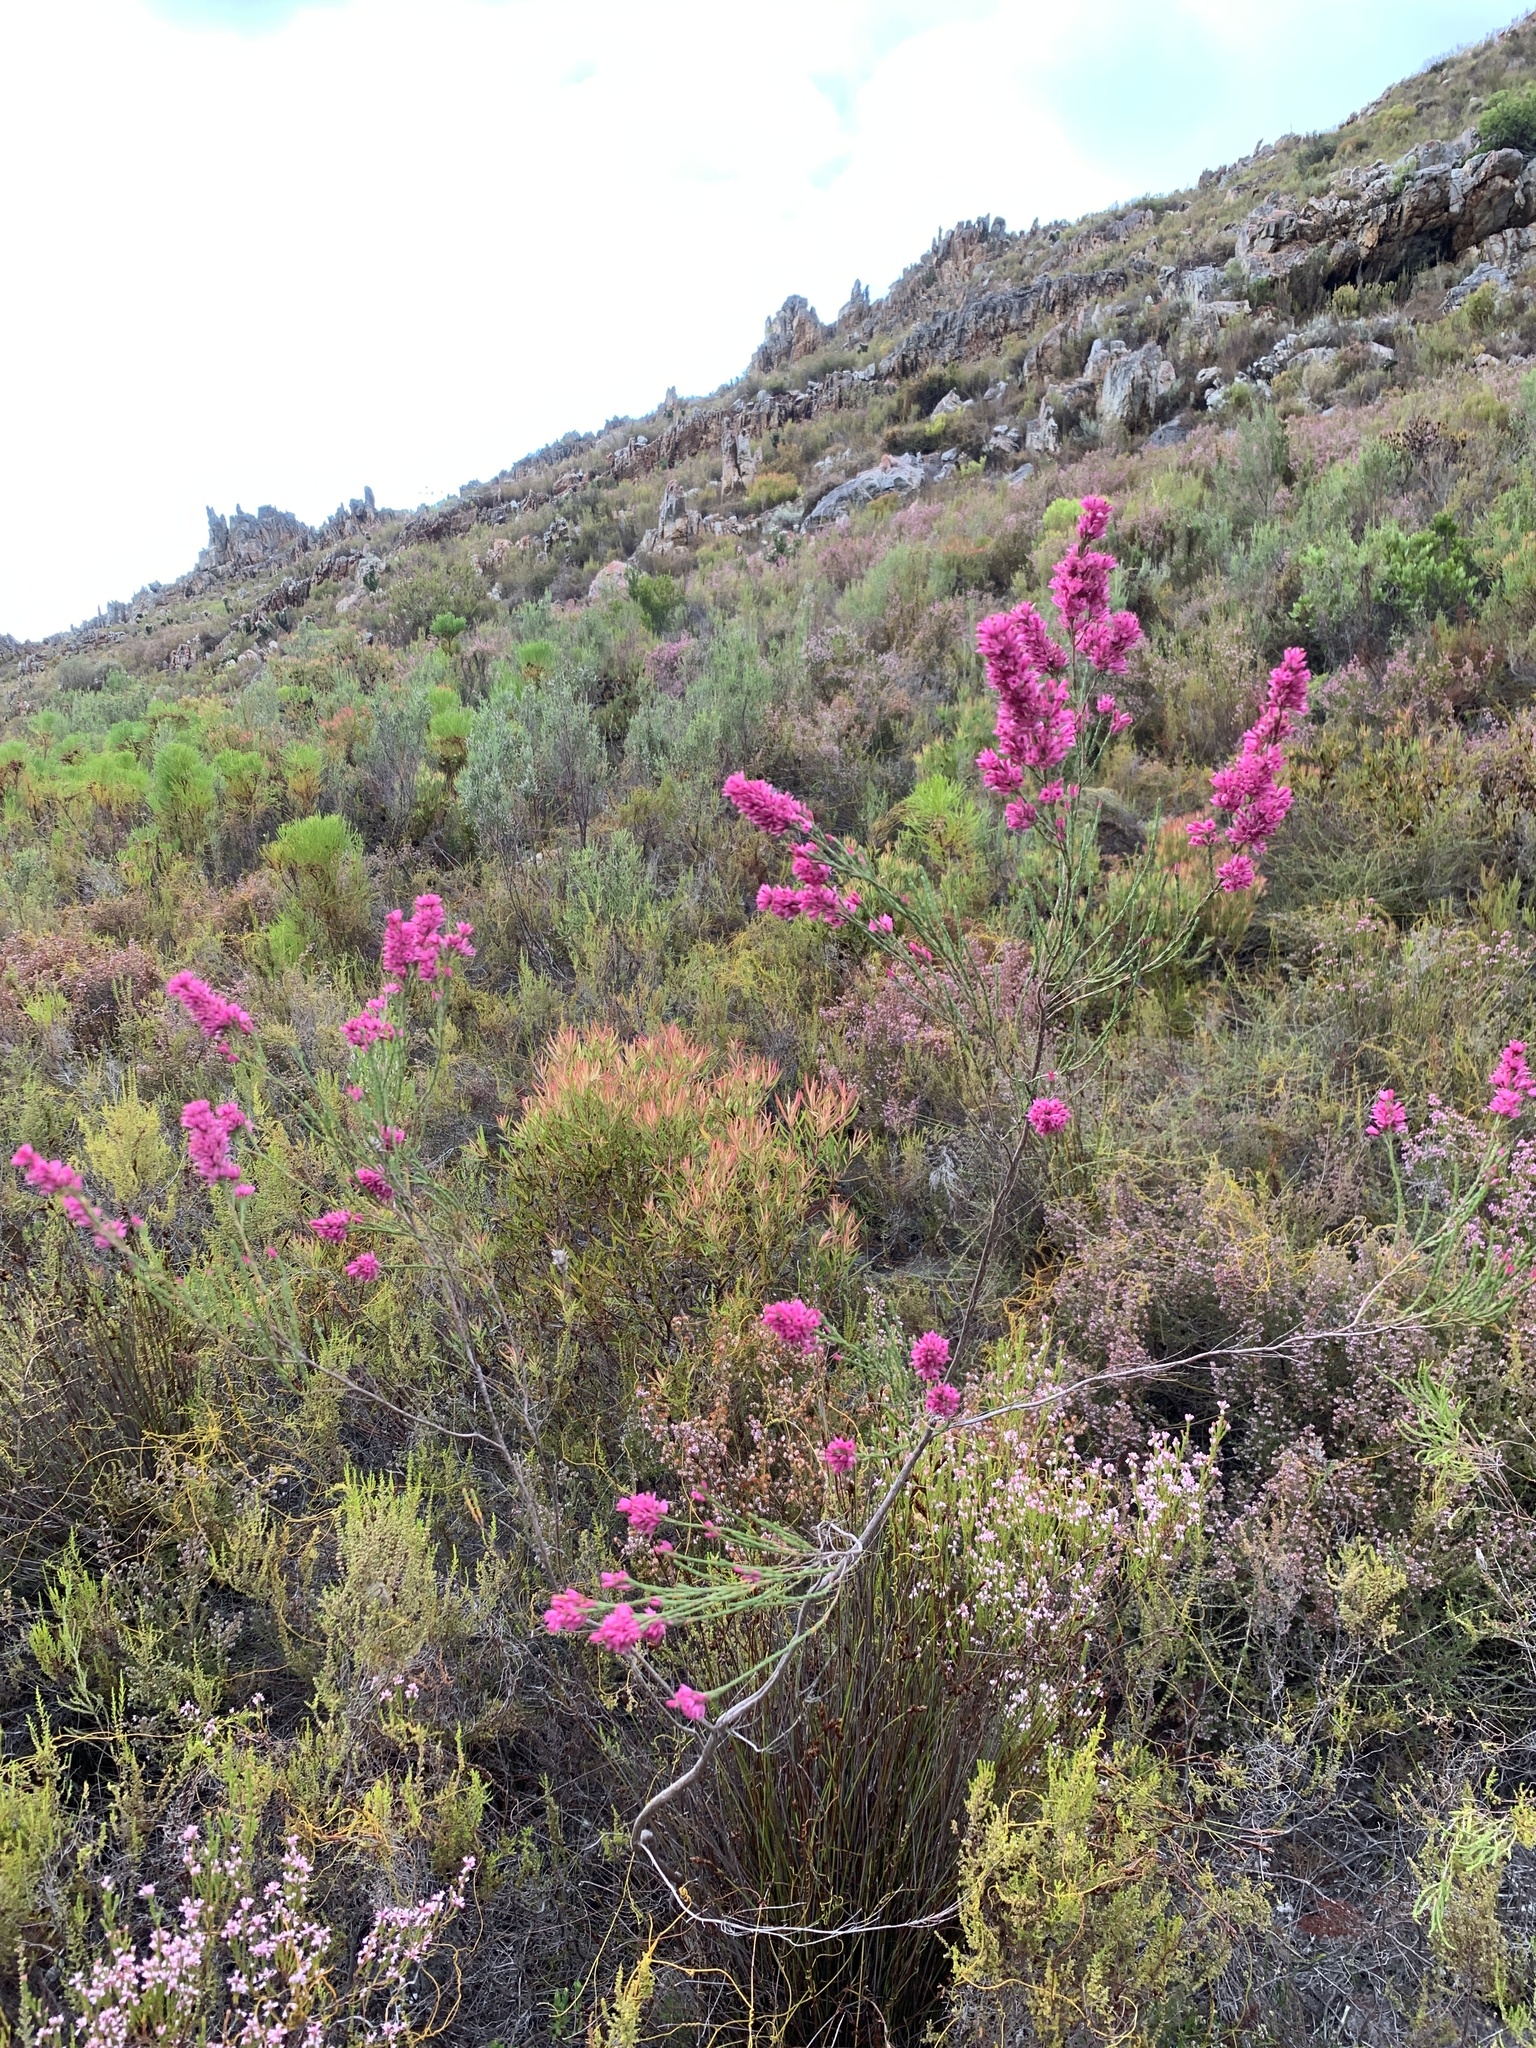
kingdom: Plantae
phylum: Tracheophyta
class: Magnoliopsida
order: Ericales
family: Ericaceae
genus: Erica
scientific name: Erica vogelpoelii
